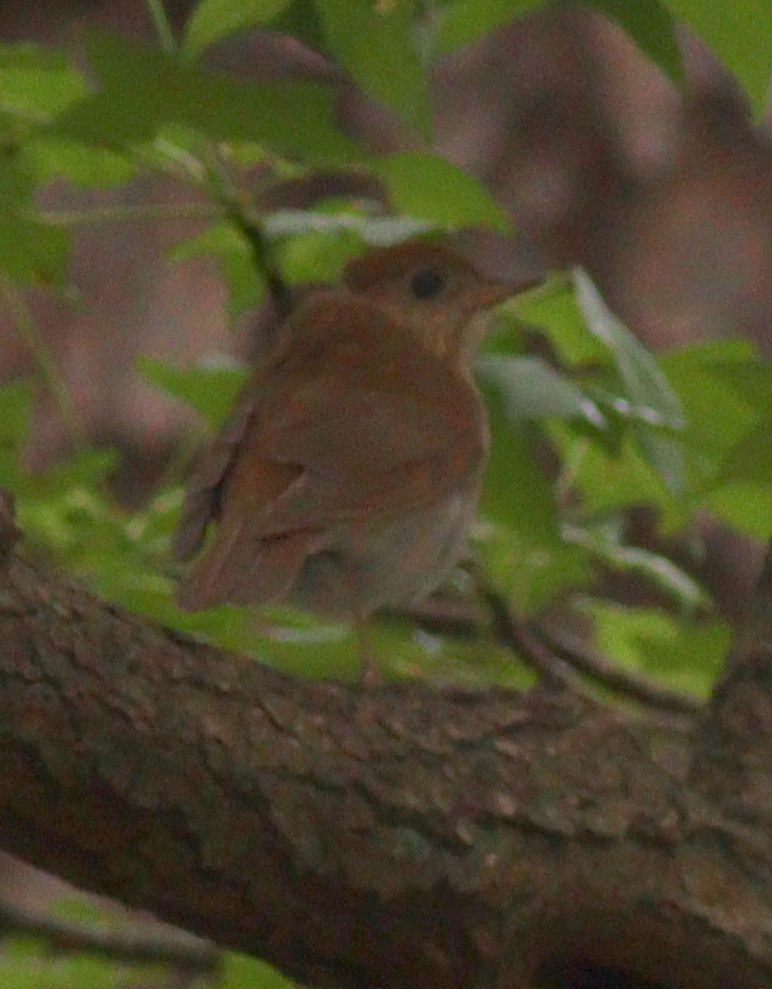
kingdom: Animalia
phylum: Chordata
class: Aves
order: Passeriformes
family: Turdidae
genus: Catharus
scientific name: Catharus fuscescens
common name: Veery
